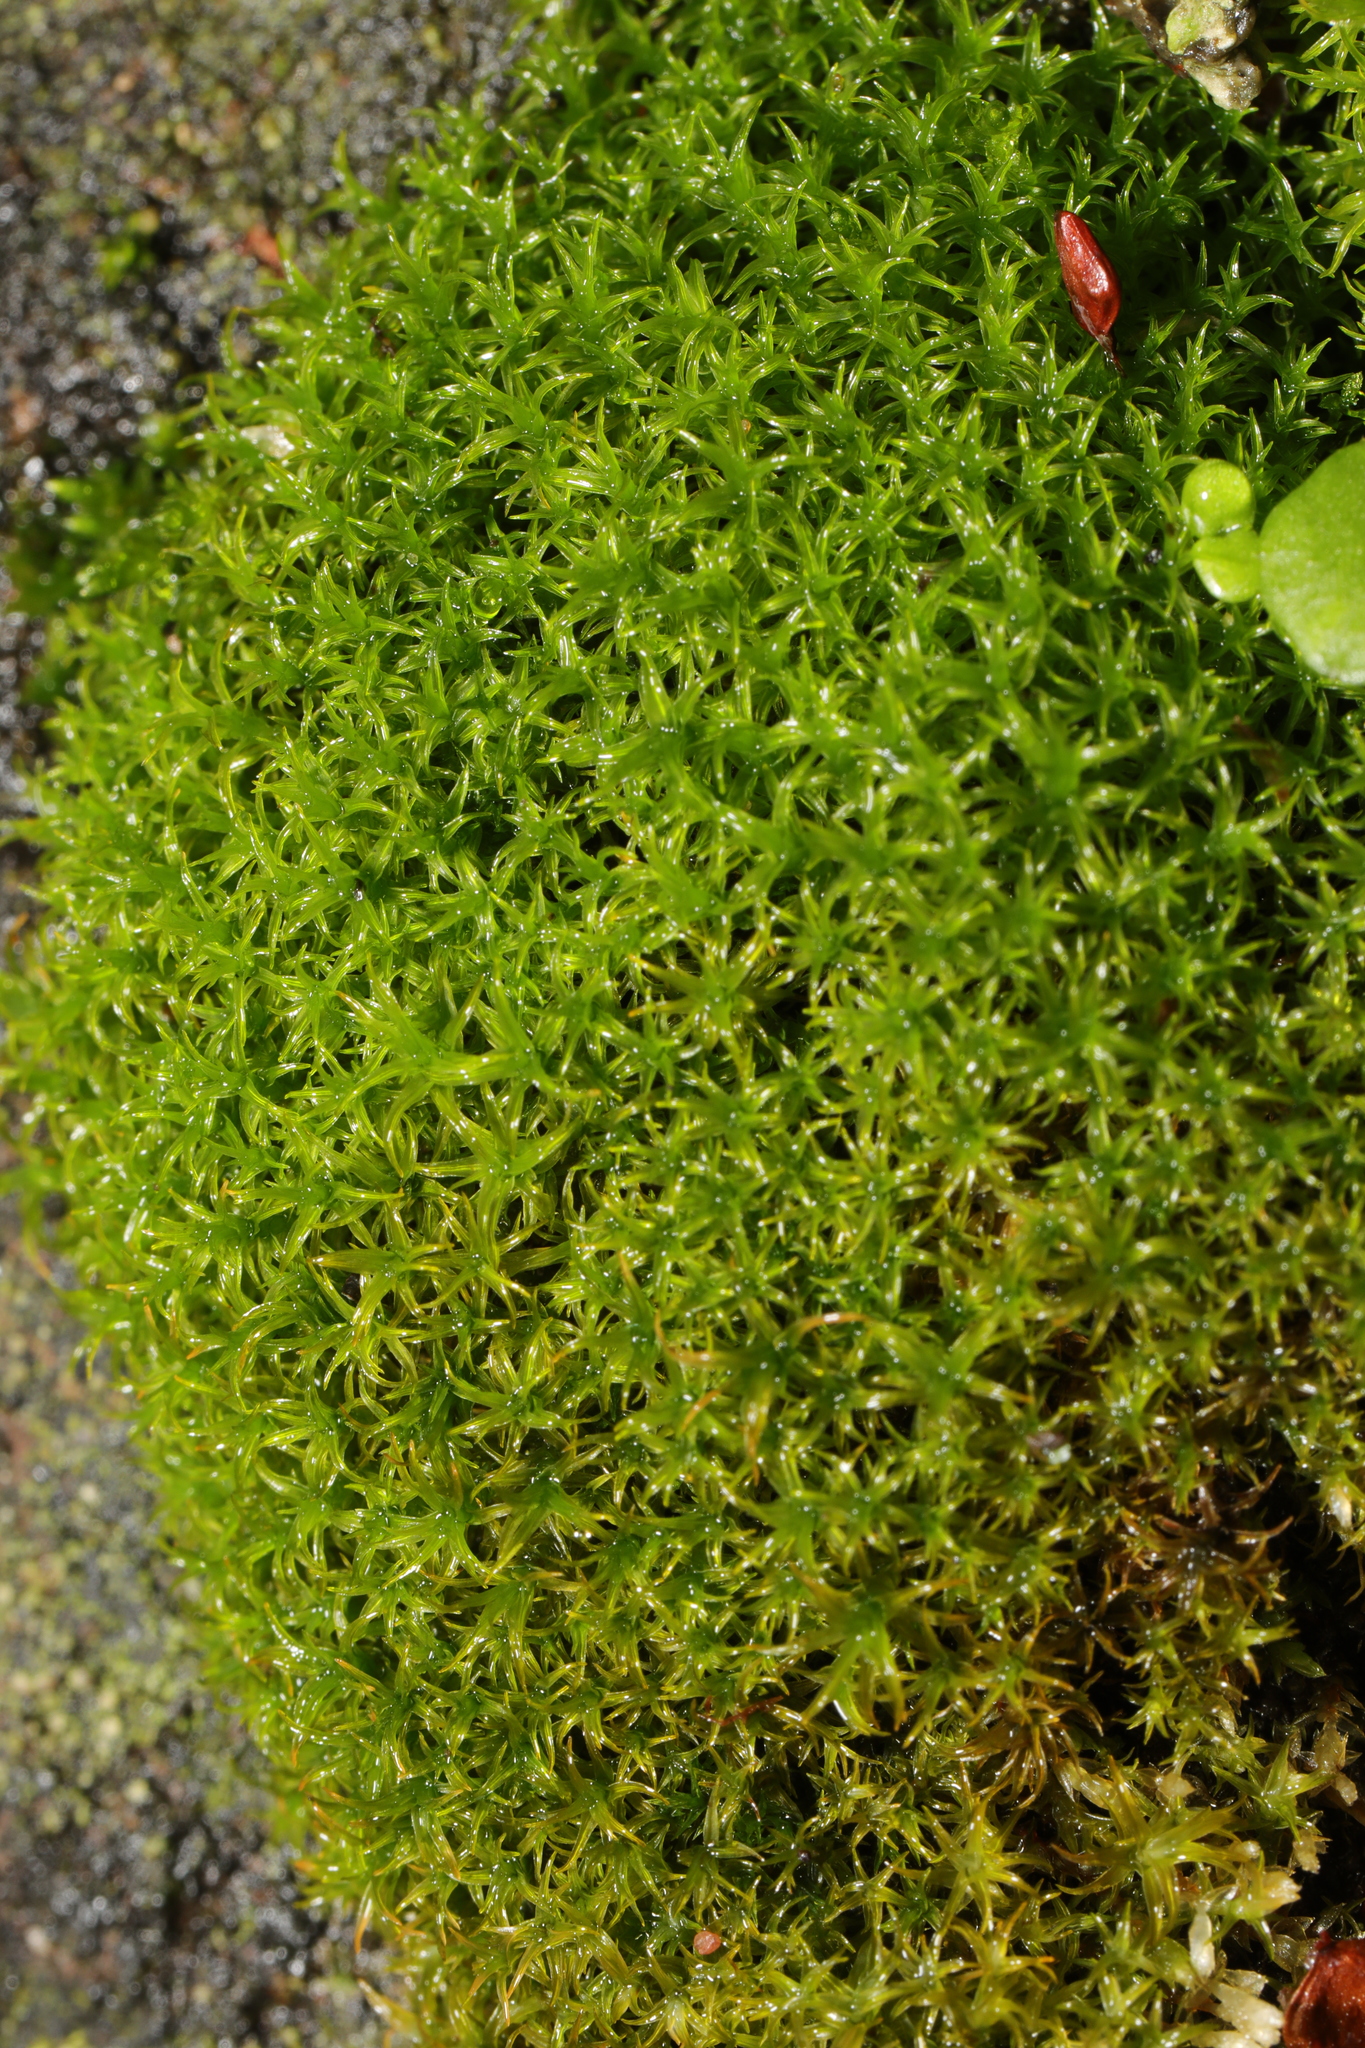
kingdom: Plantae
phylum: Bryophyta
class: Bryopsida
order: Pottiales
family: Pottiaceae
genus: Vinealobryum
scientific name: Vinealobryum insulanum
